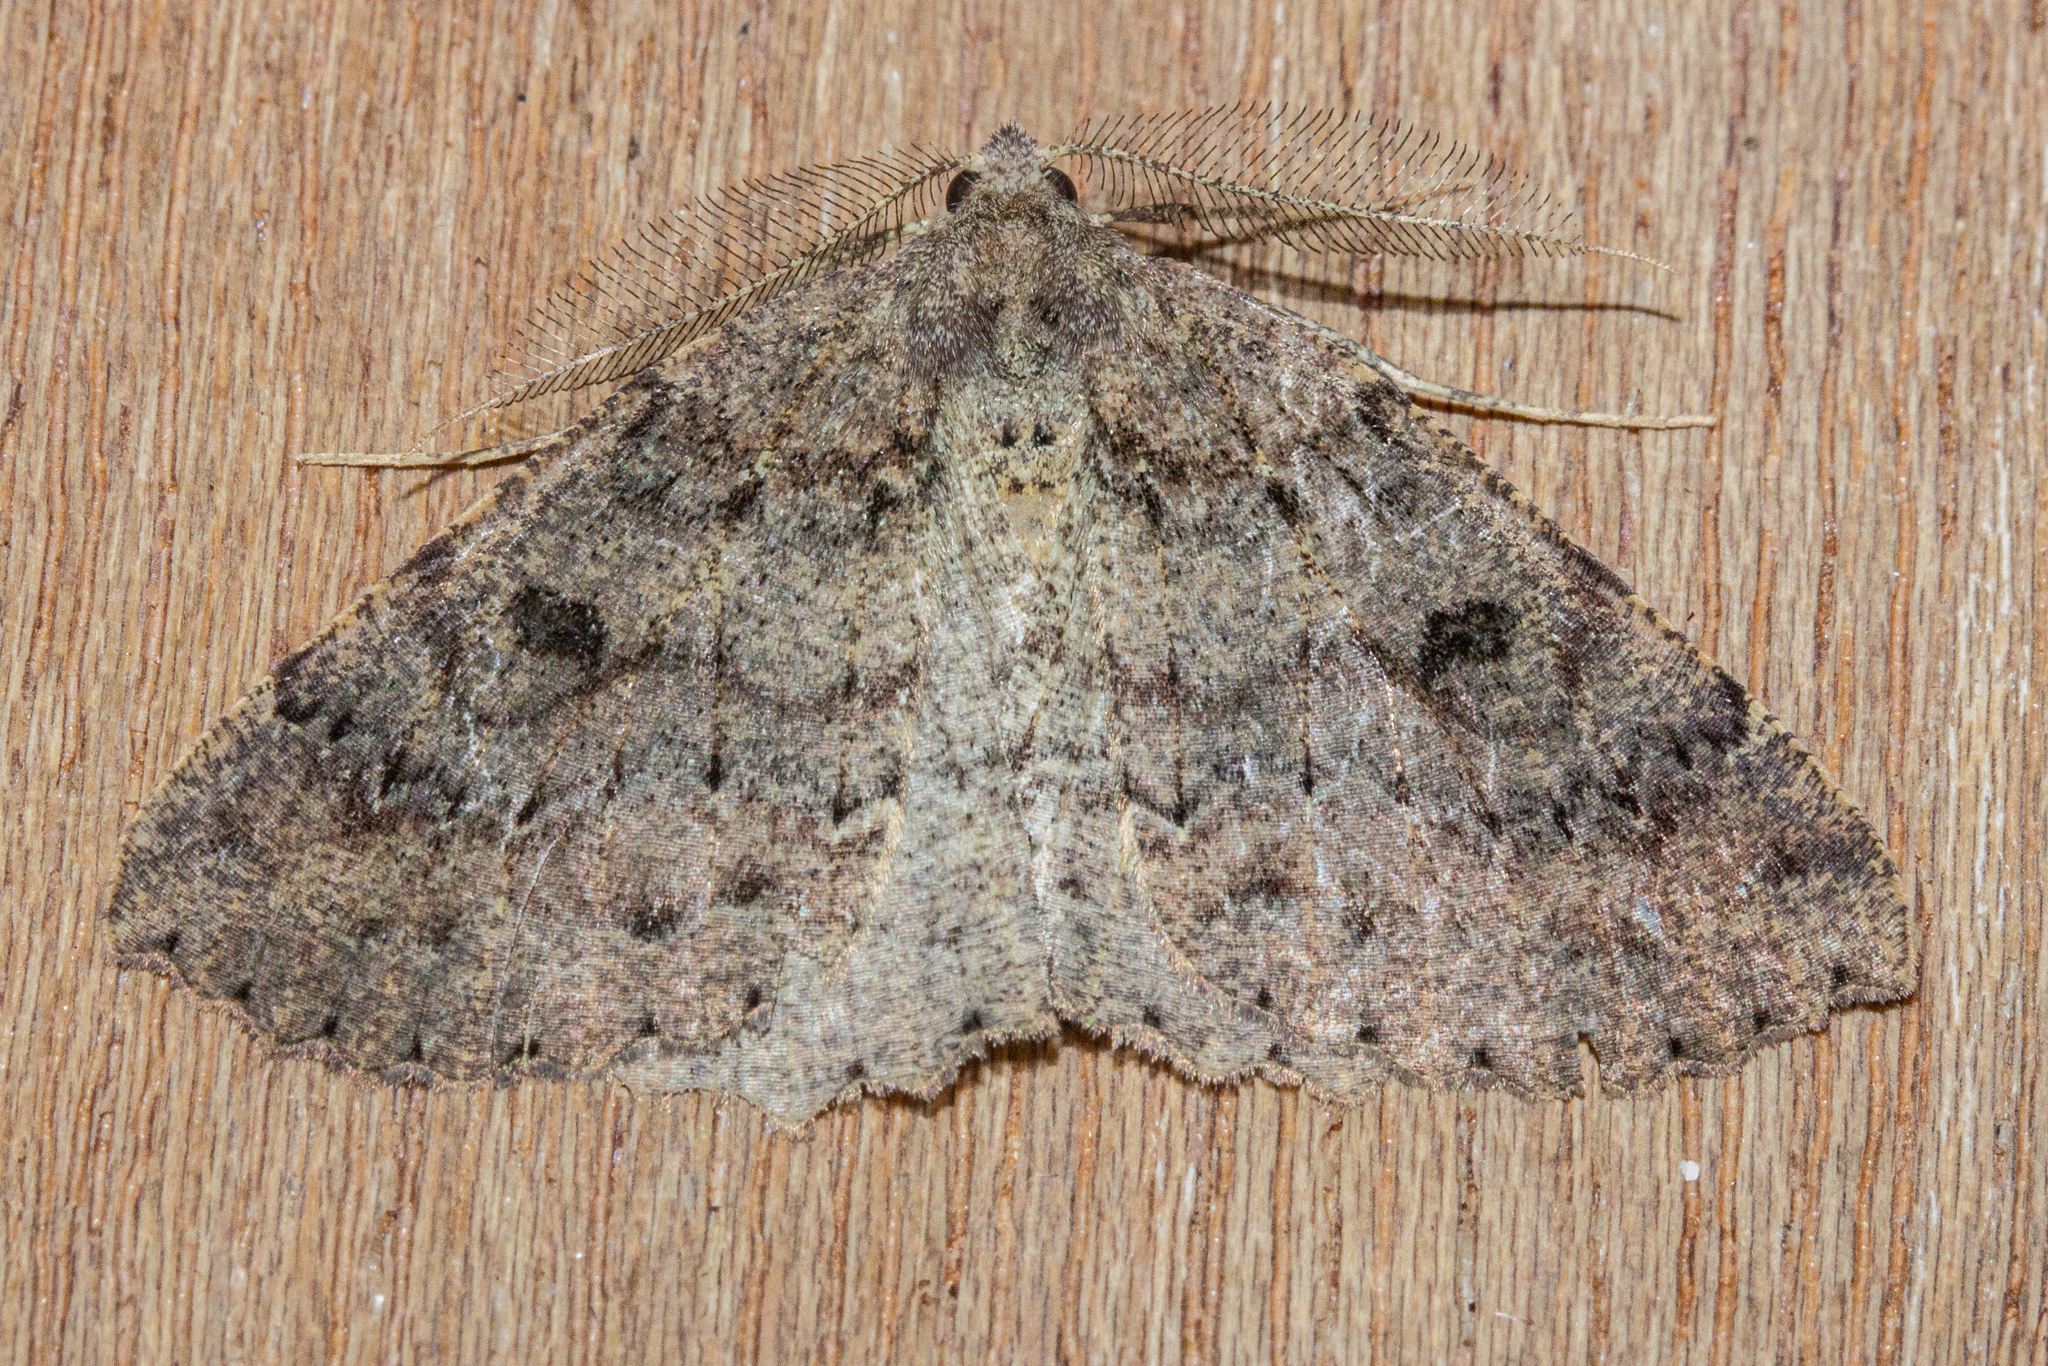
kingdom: Animalia
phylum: Arthropoda
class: Insecta
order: Lepidoptera
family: Geometridae
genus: Cleora
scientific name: Cleora scriptaria
